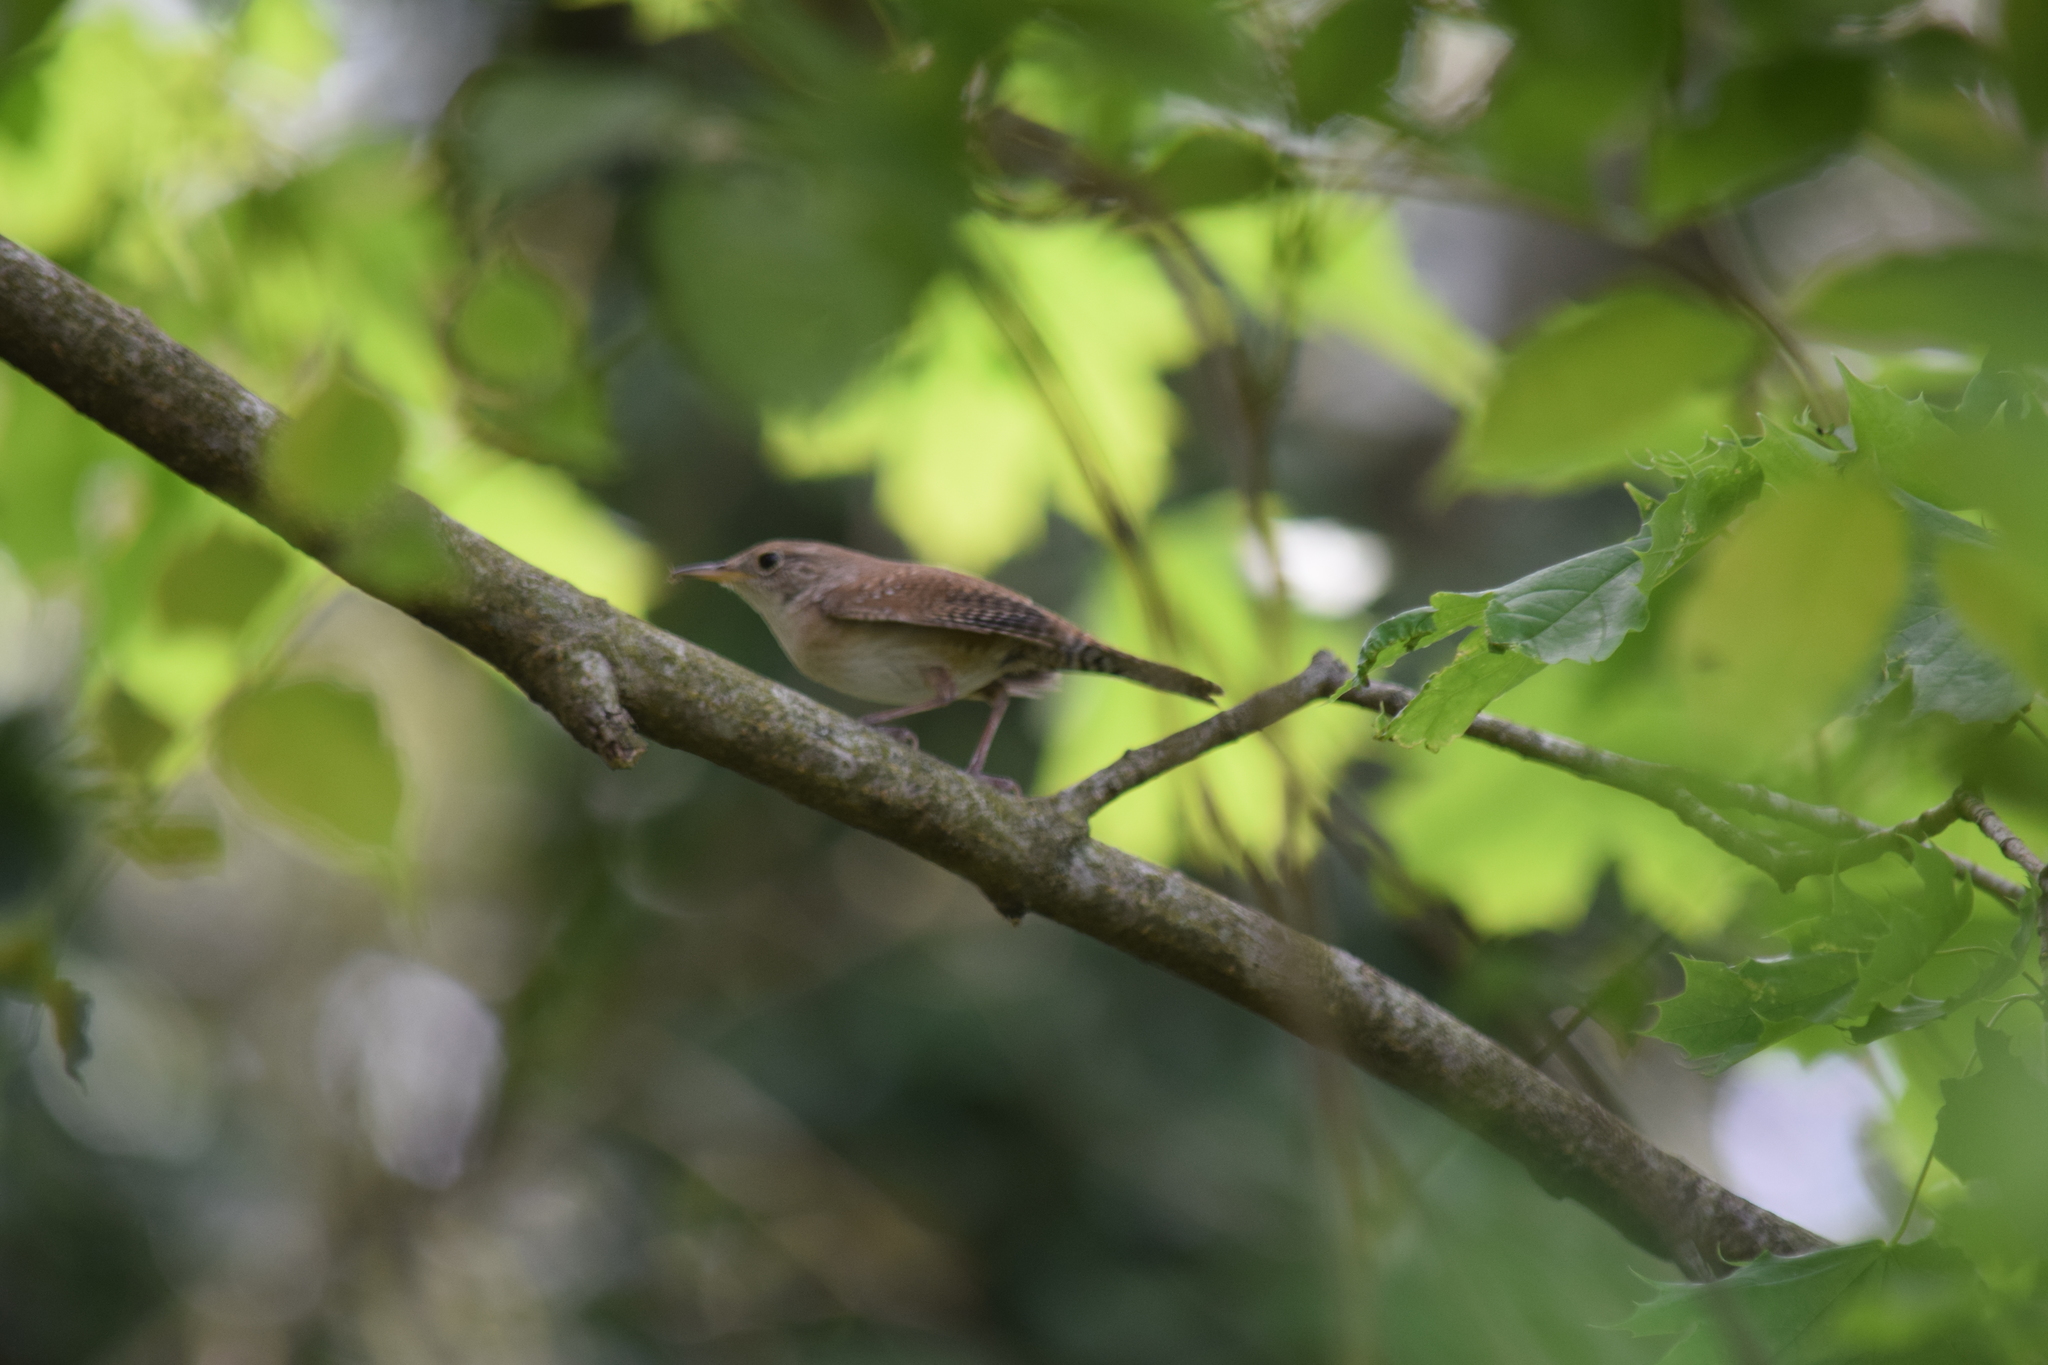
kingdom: Animalia
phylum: Chordata
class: Aves
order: Passeriformes
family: Troglodytidae
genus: Troglodytes
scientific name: Troglodytes aedon
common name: House wren
